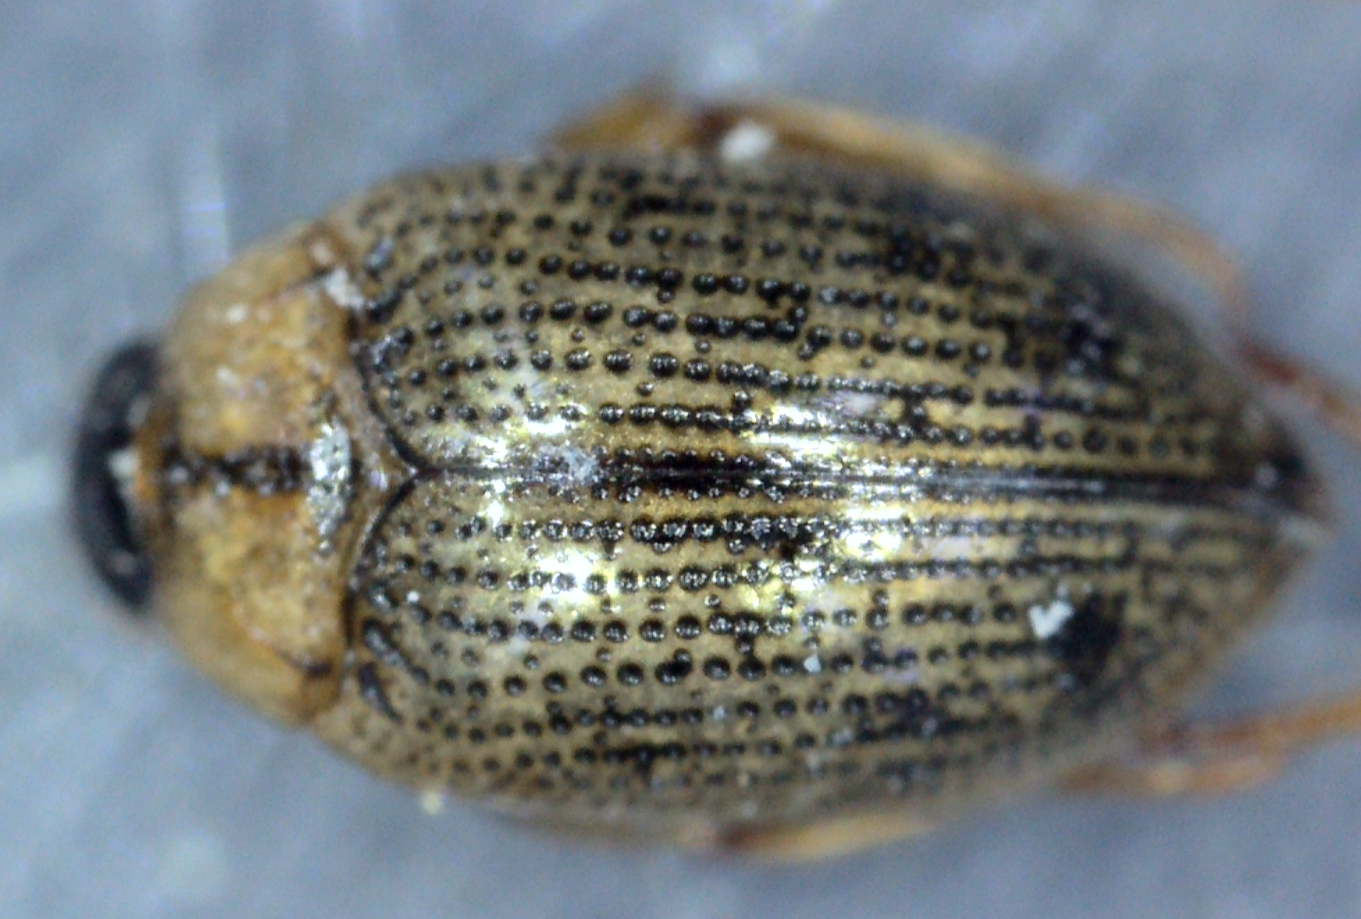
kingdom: Animalia
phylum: Arthropoda
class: Insecta
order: Coleoptera
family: Haliplidae
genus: Haliplus
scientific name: Haliplus lineatocollis
